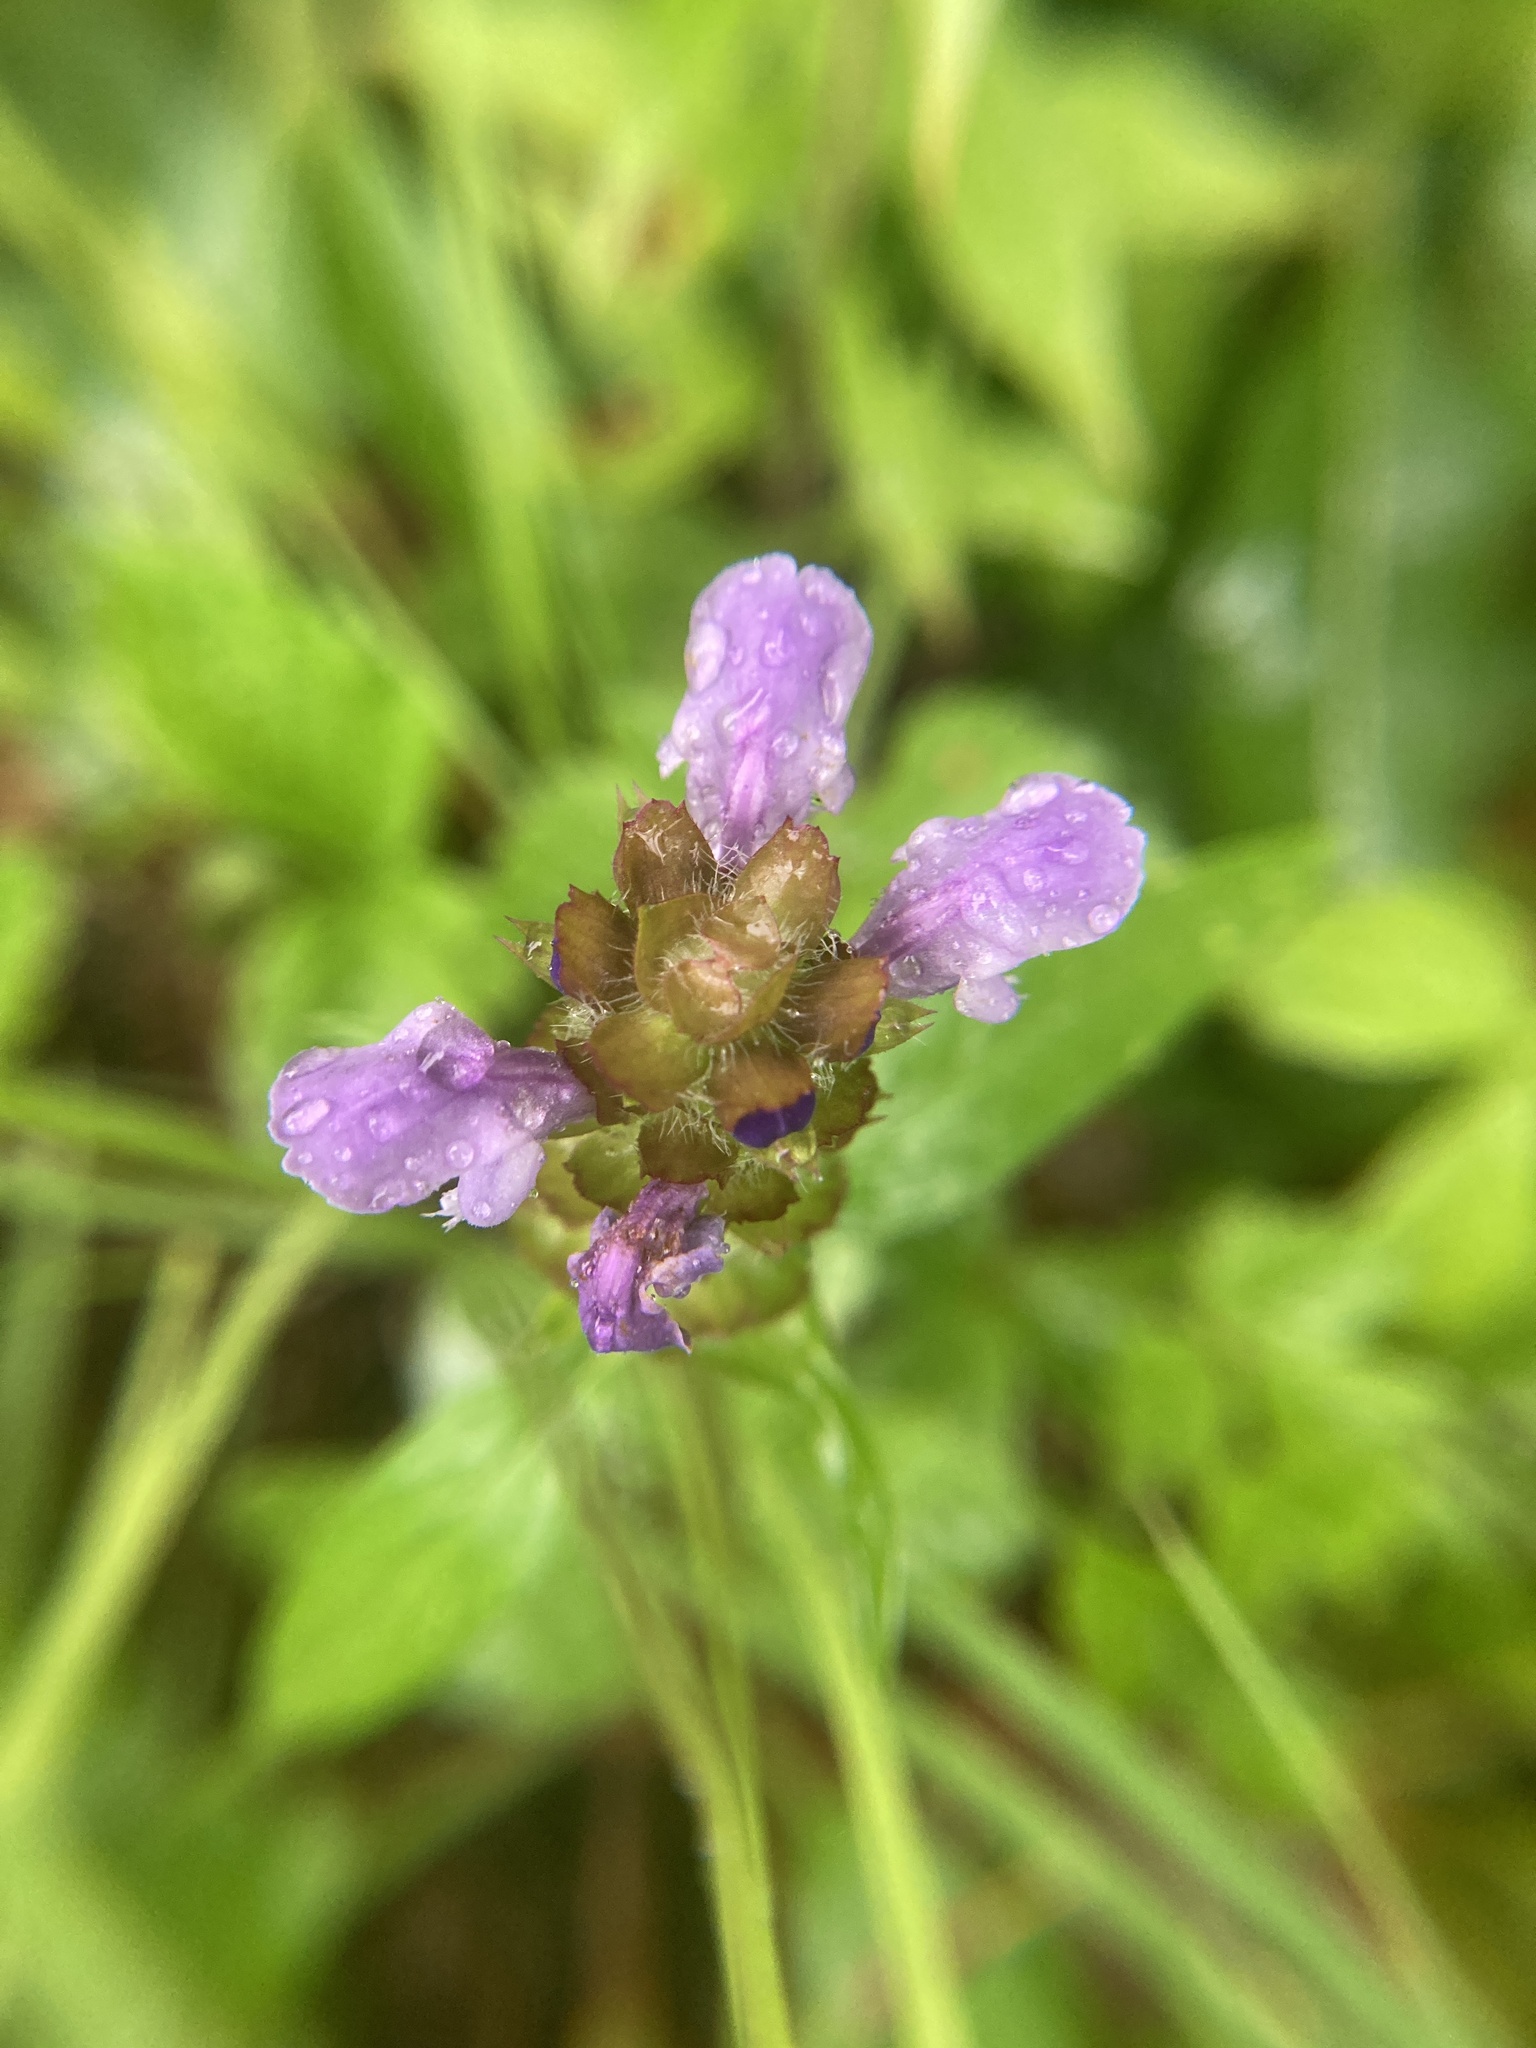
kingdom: Plantae
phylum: Tracheophyta
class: Magnoliopsida
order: Lamiales
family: Lamiaceae
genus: Prunella
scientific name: Prunella vulgaris
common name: Heal-all
